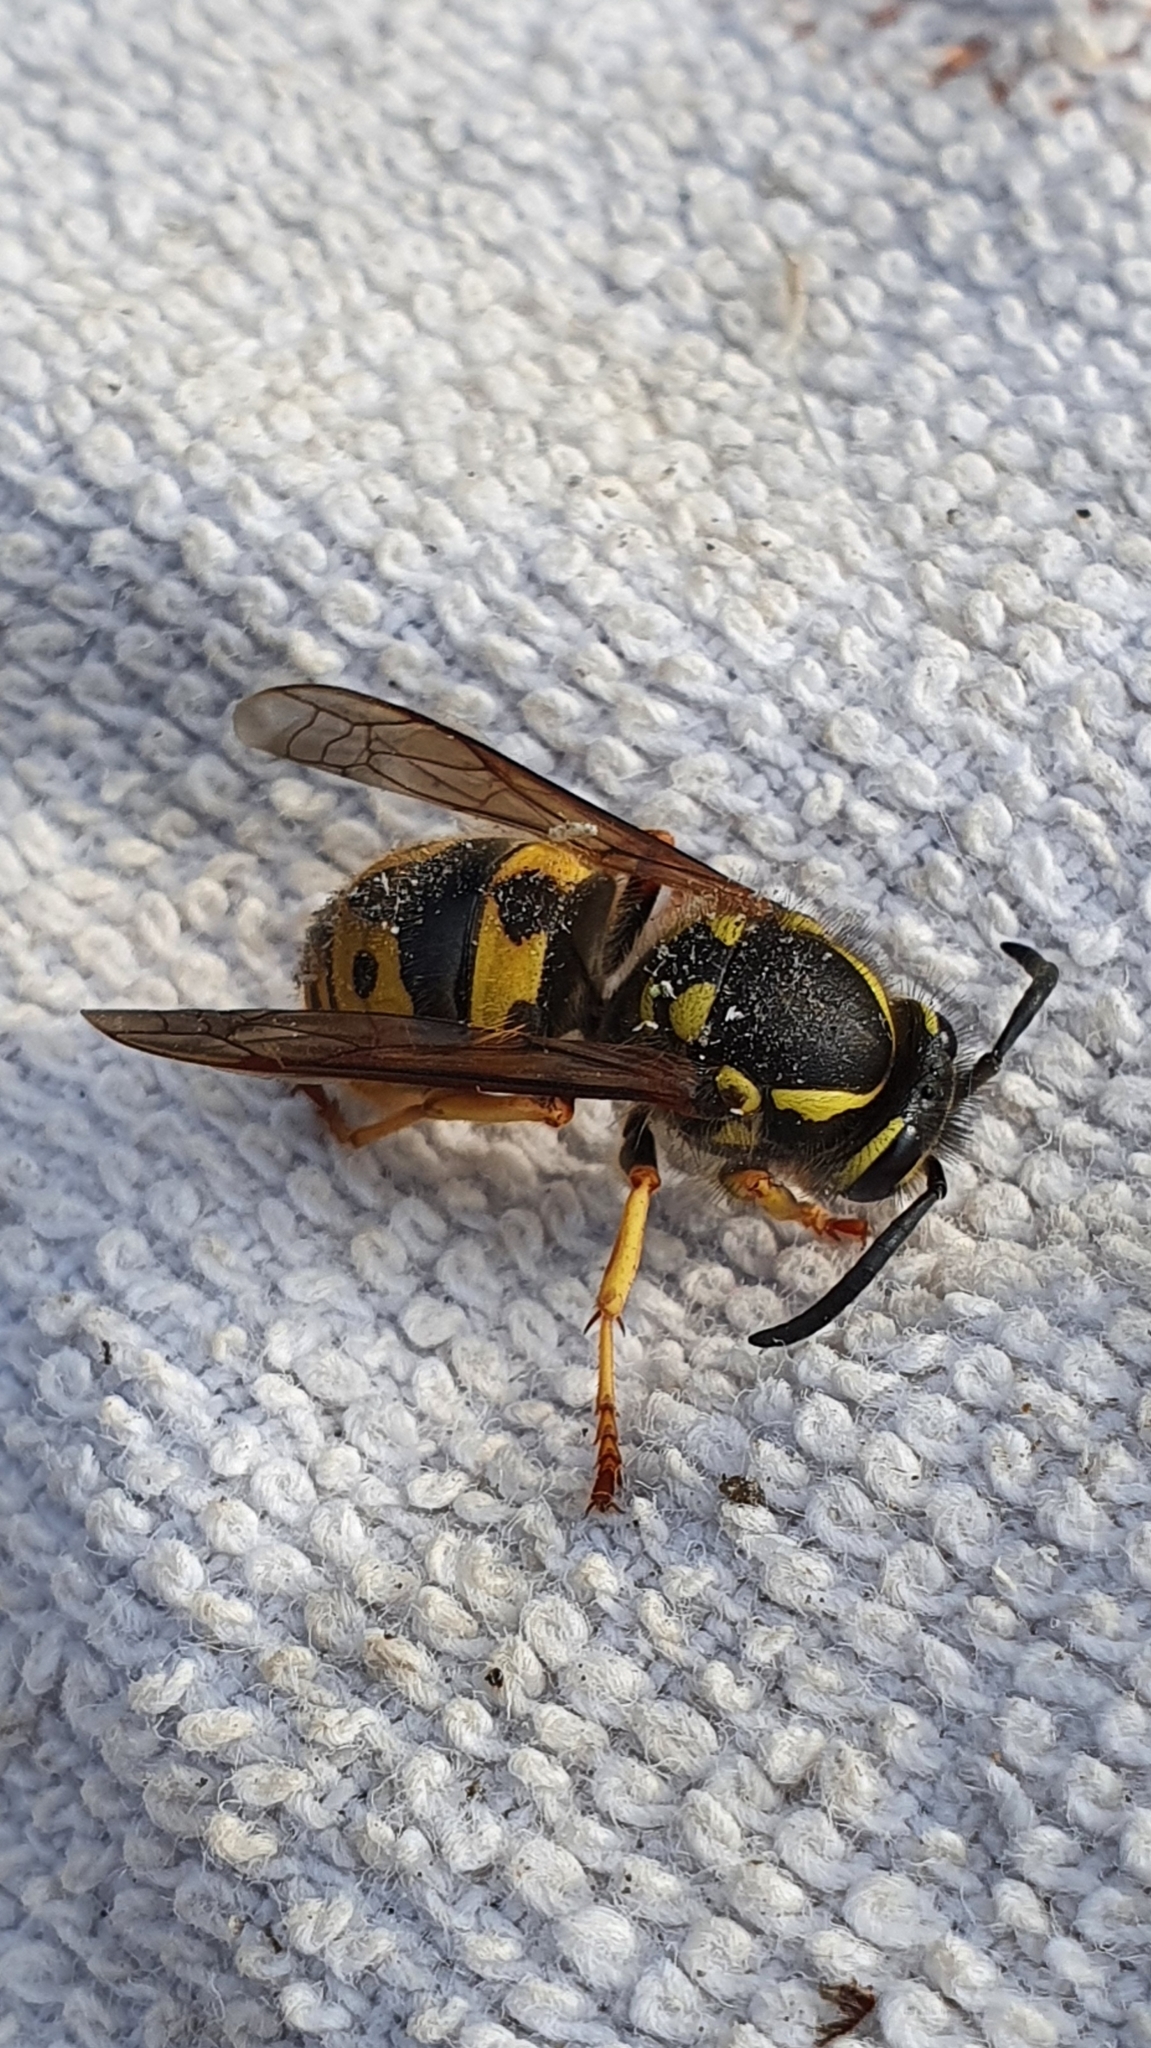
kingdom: Animalia
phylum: Arthropoda
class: Insecta
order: Hymenoptera
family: Vespidae
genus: Vespula
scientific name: Vespula germanica
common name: German wasp
